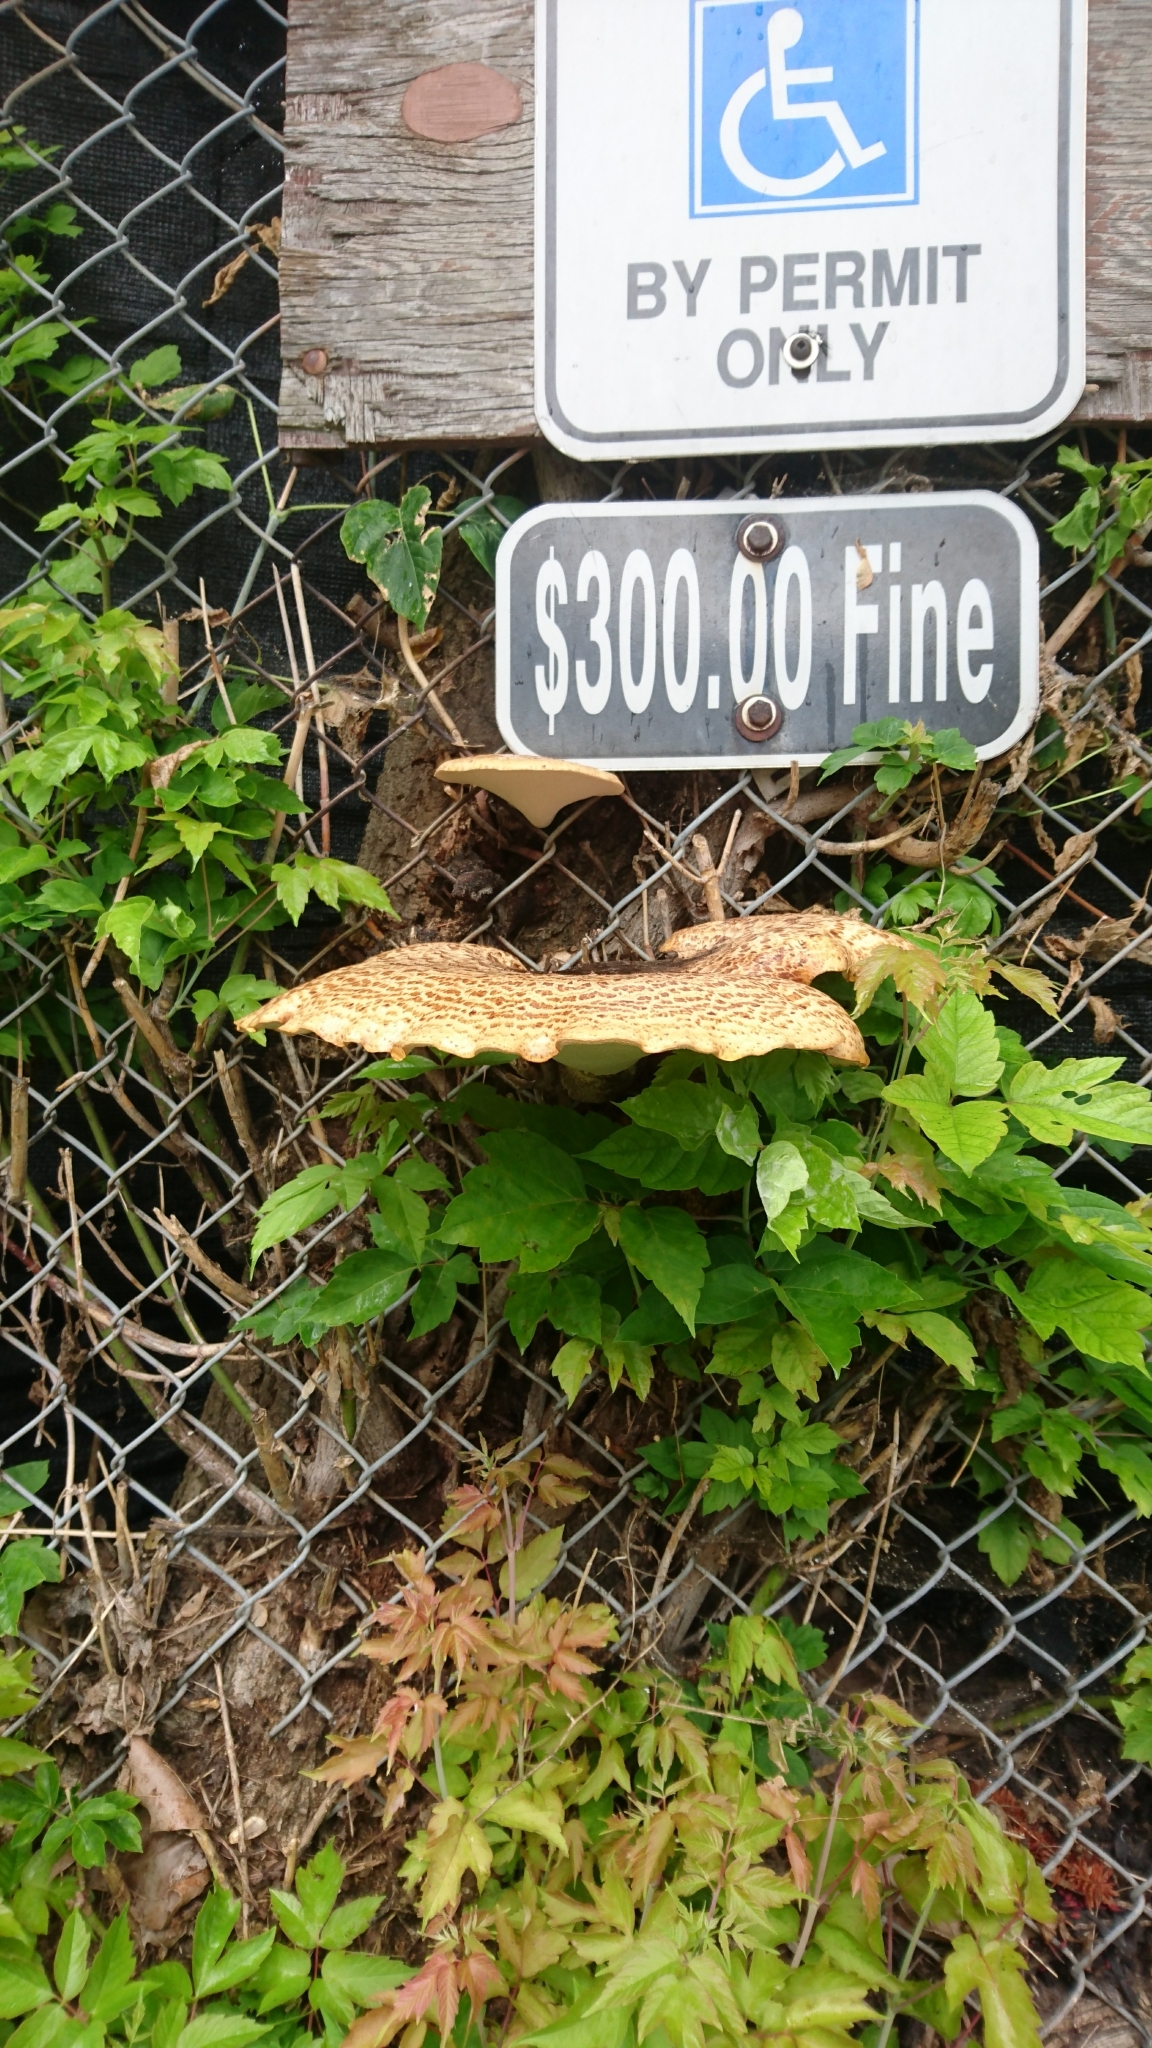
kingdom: Fungi
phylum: Basidiomycota
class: Agaricomycetes
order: Polyporales
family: Polyporaceae
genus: Cerioporus
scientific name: Cerioporus squamosus
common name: Dryad's saddle
